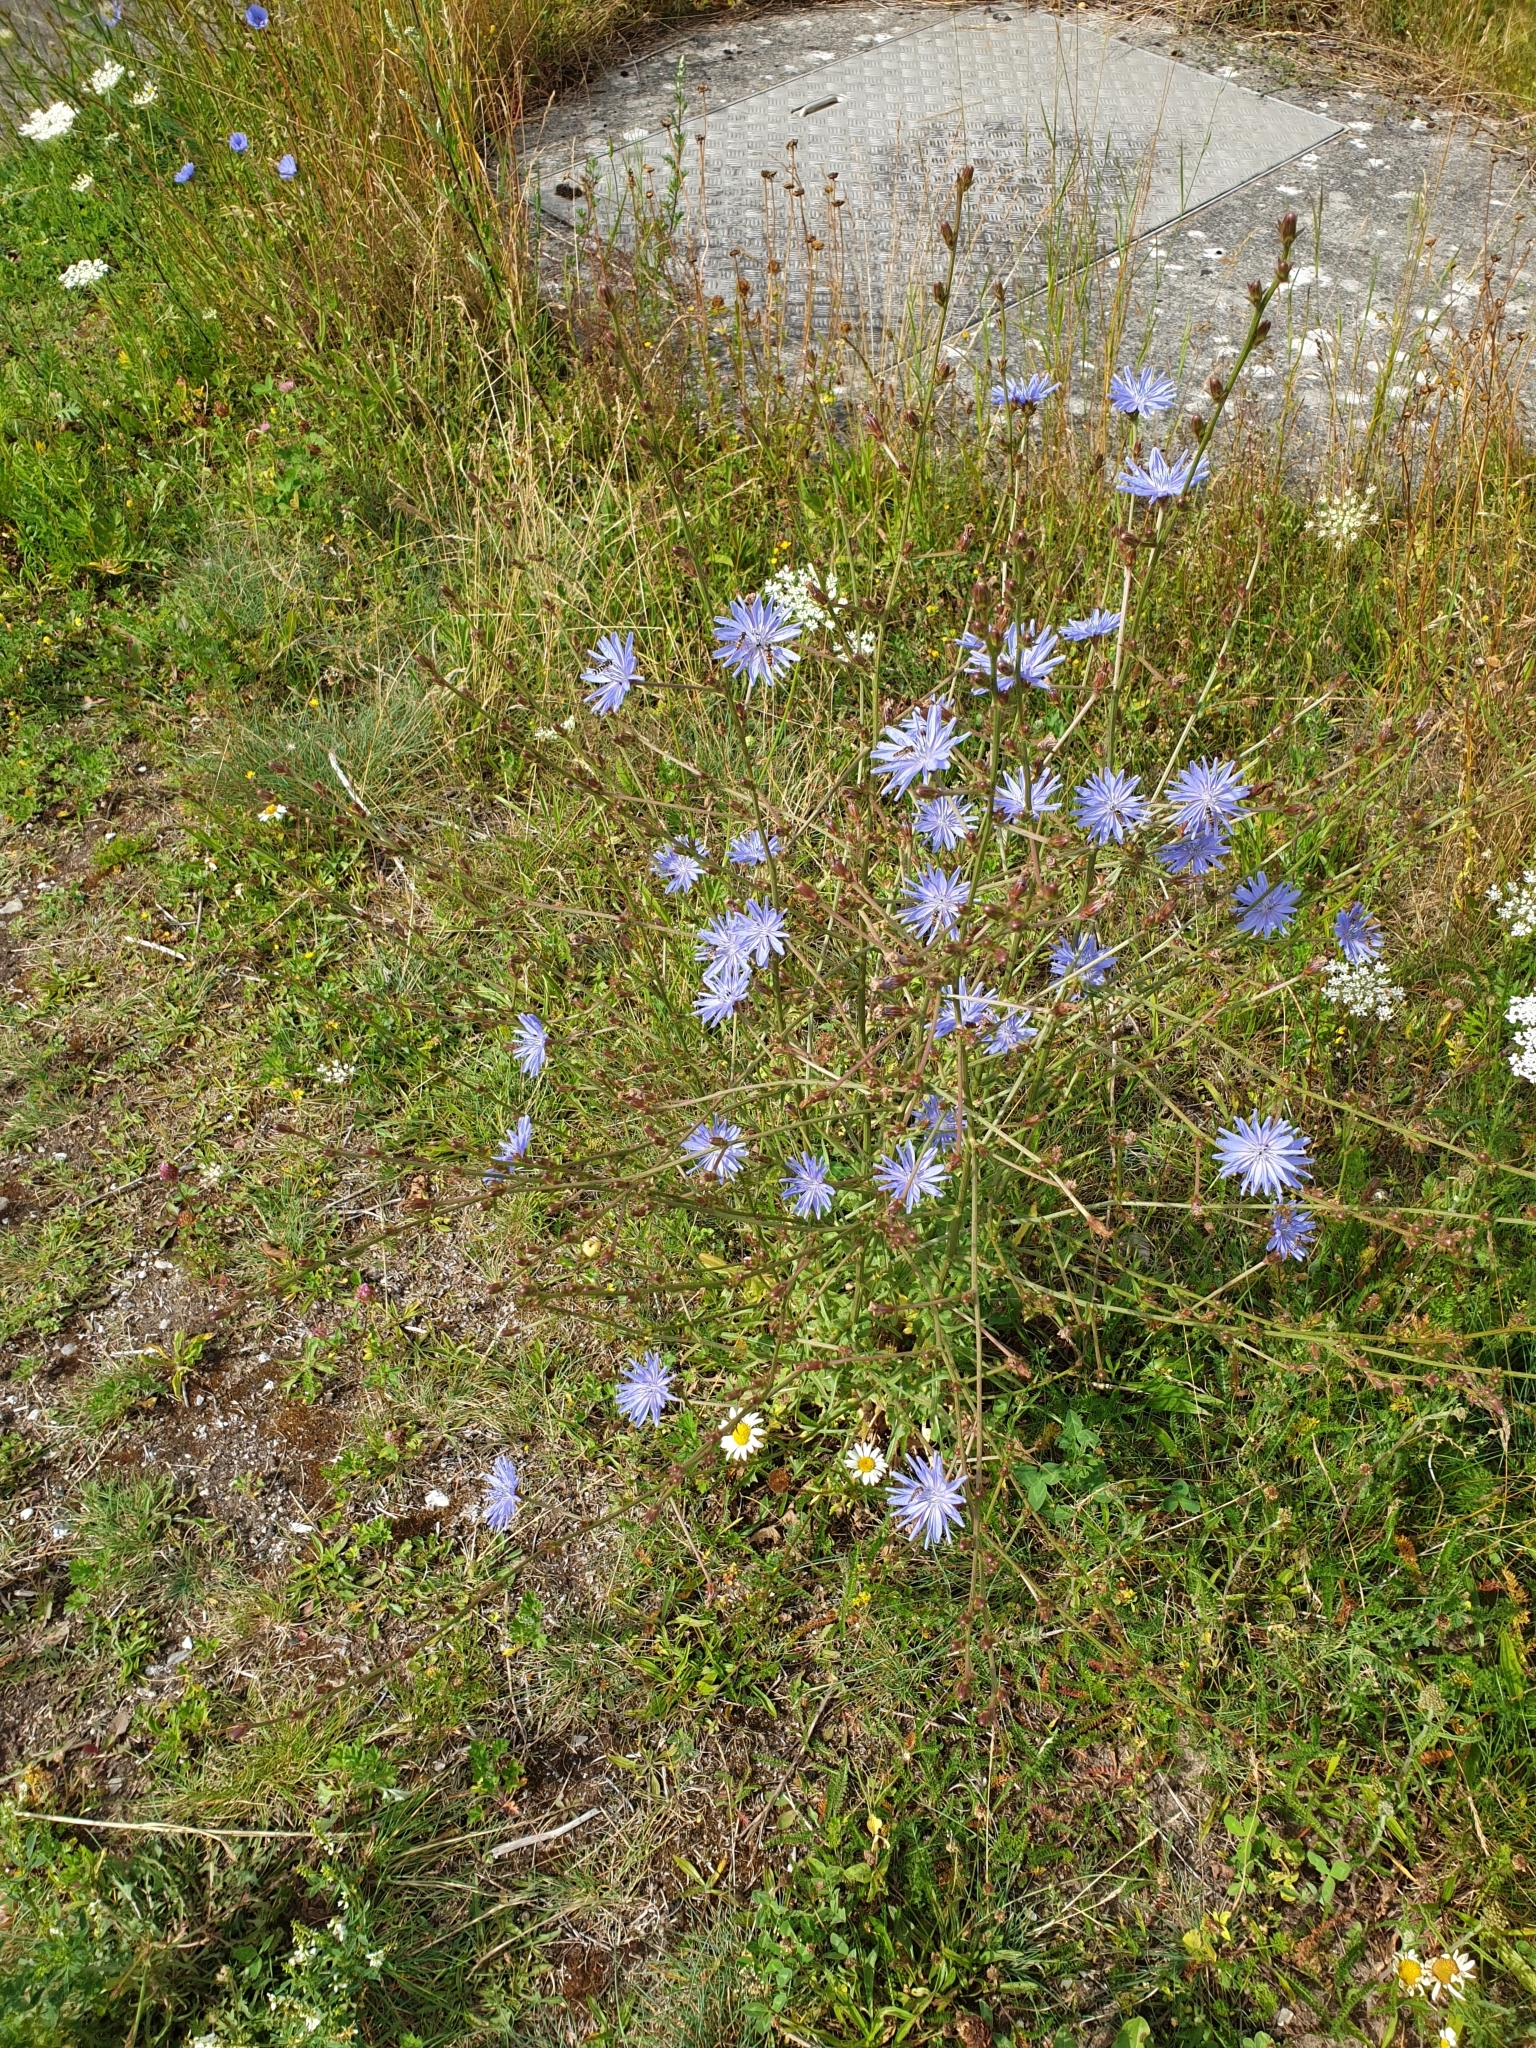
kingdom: Plantae
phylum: Tracheophyta
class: Magnoliopsida
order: Asterales
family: Asteraceae
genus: Cichorium
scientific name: Cichorium intybus
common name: Chicory
